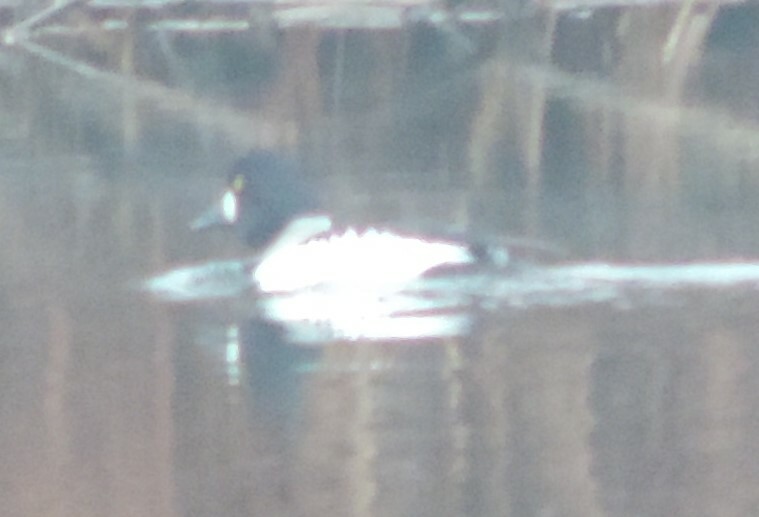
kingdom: Animalia
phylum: Chordata
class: Aves
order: Anseriformes
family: Anatidae
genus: Bucephala
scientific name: Bucephala clangula
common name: Common goldeneye
